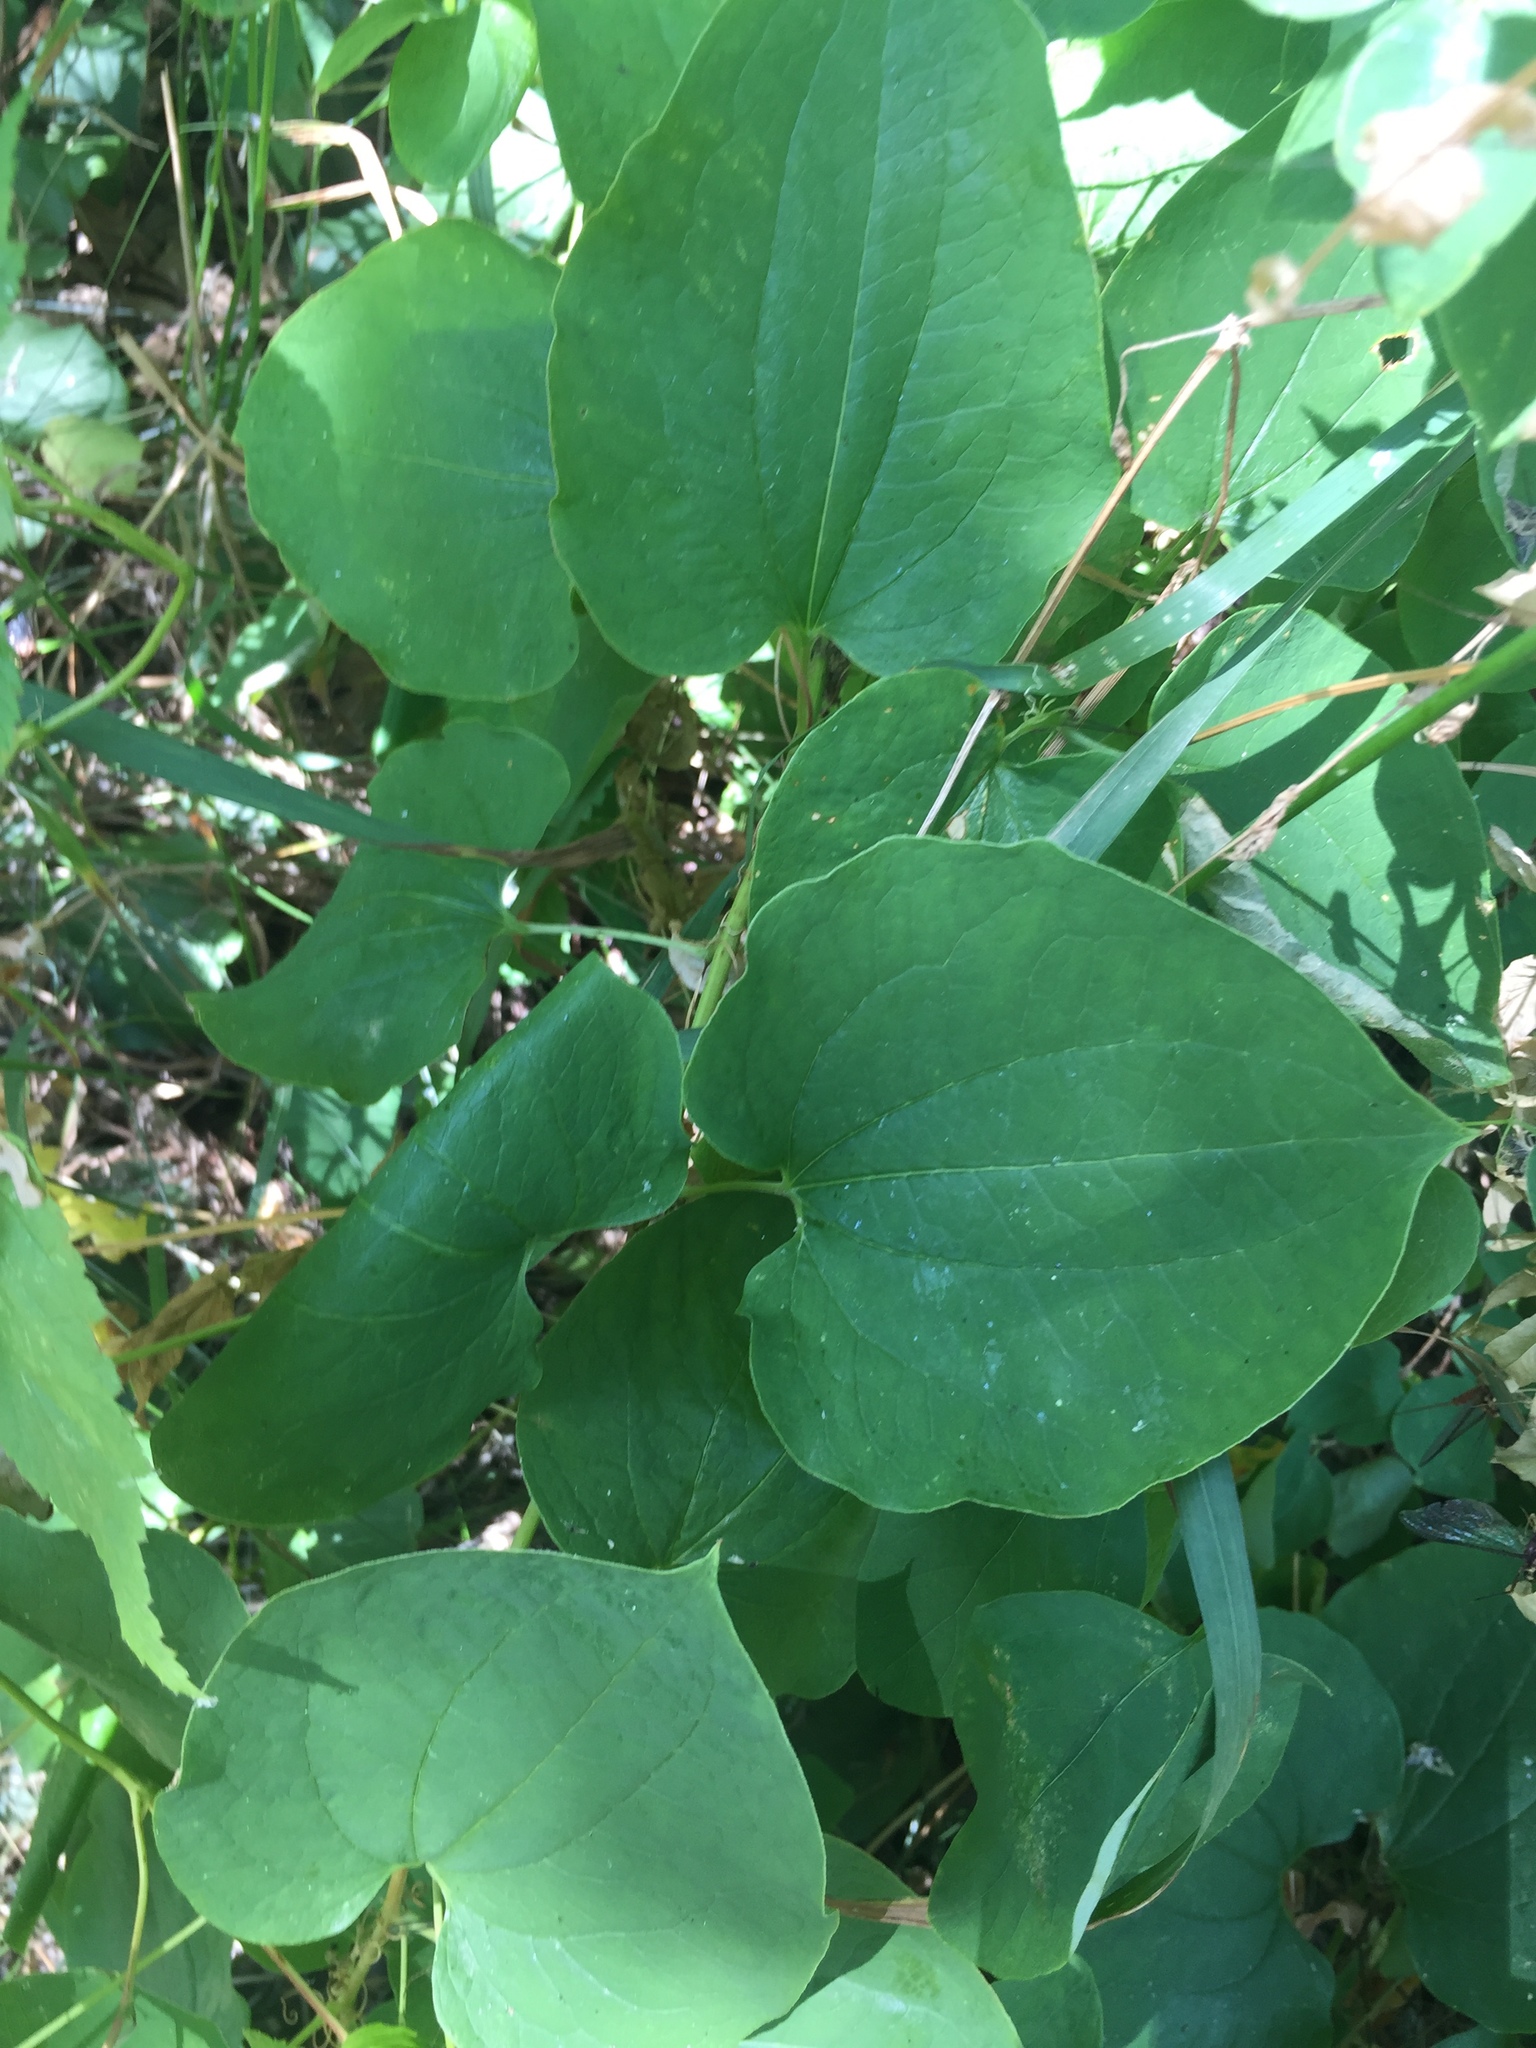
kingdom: Plantae
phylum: Tracheophyta
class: Liliopsida
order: Liliales
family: Smilacaceae
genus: Smilax
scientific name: Smilax lasioneura
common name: Blue ridge carrionflower
